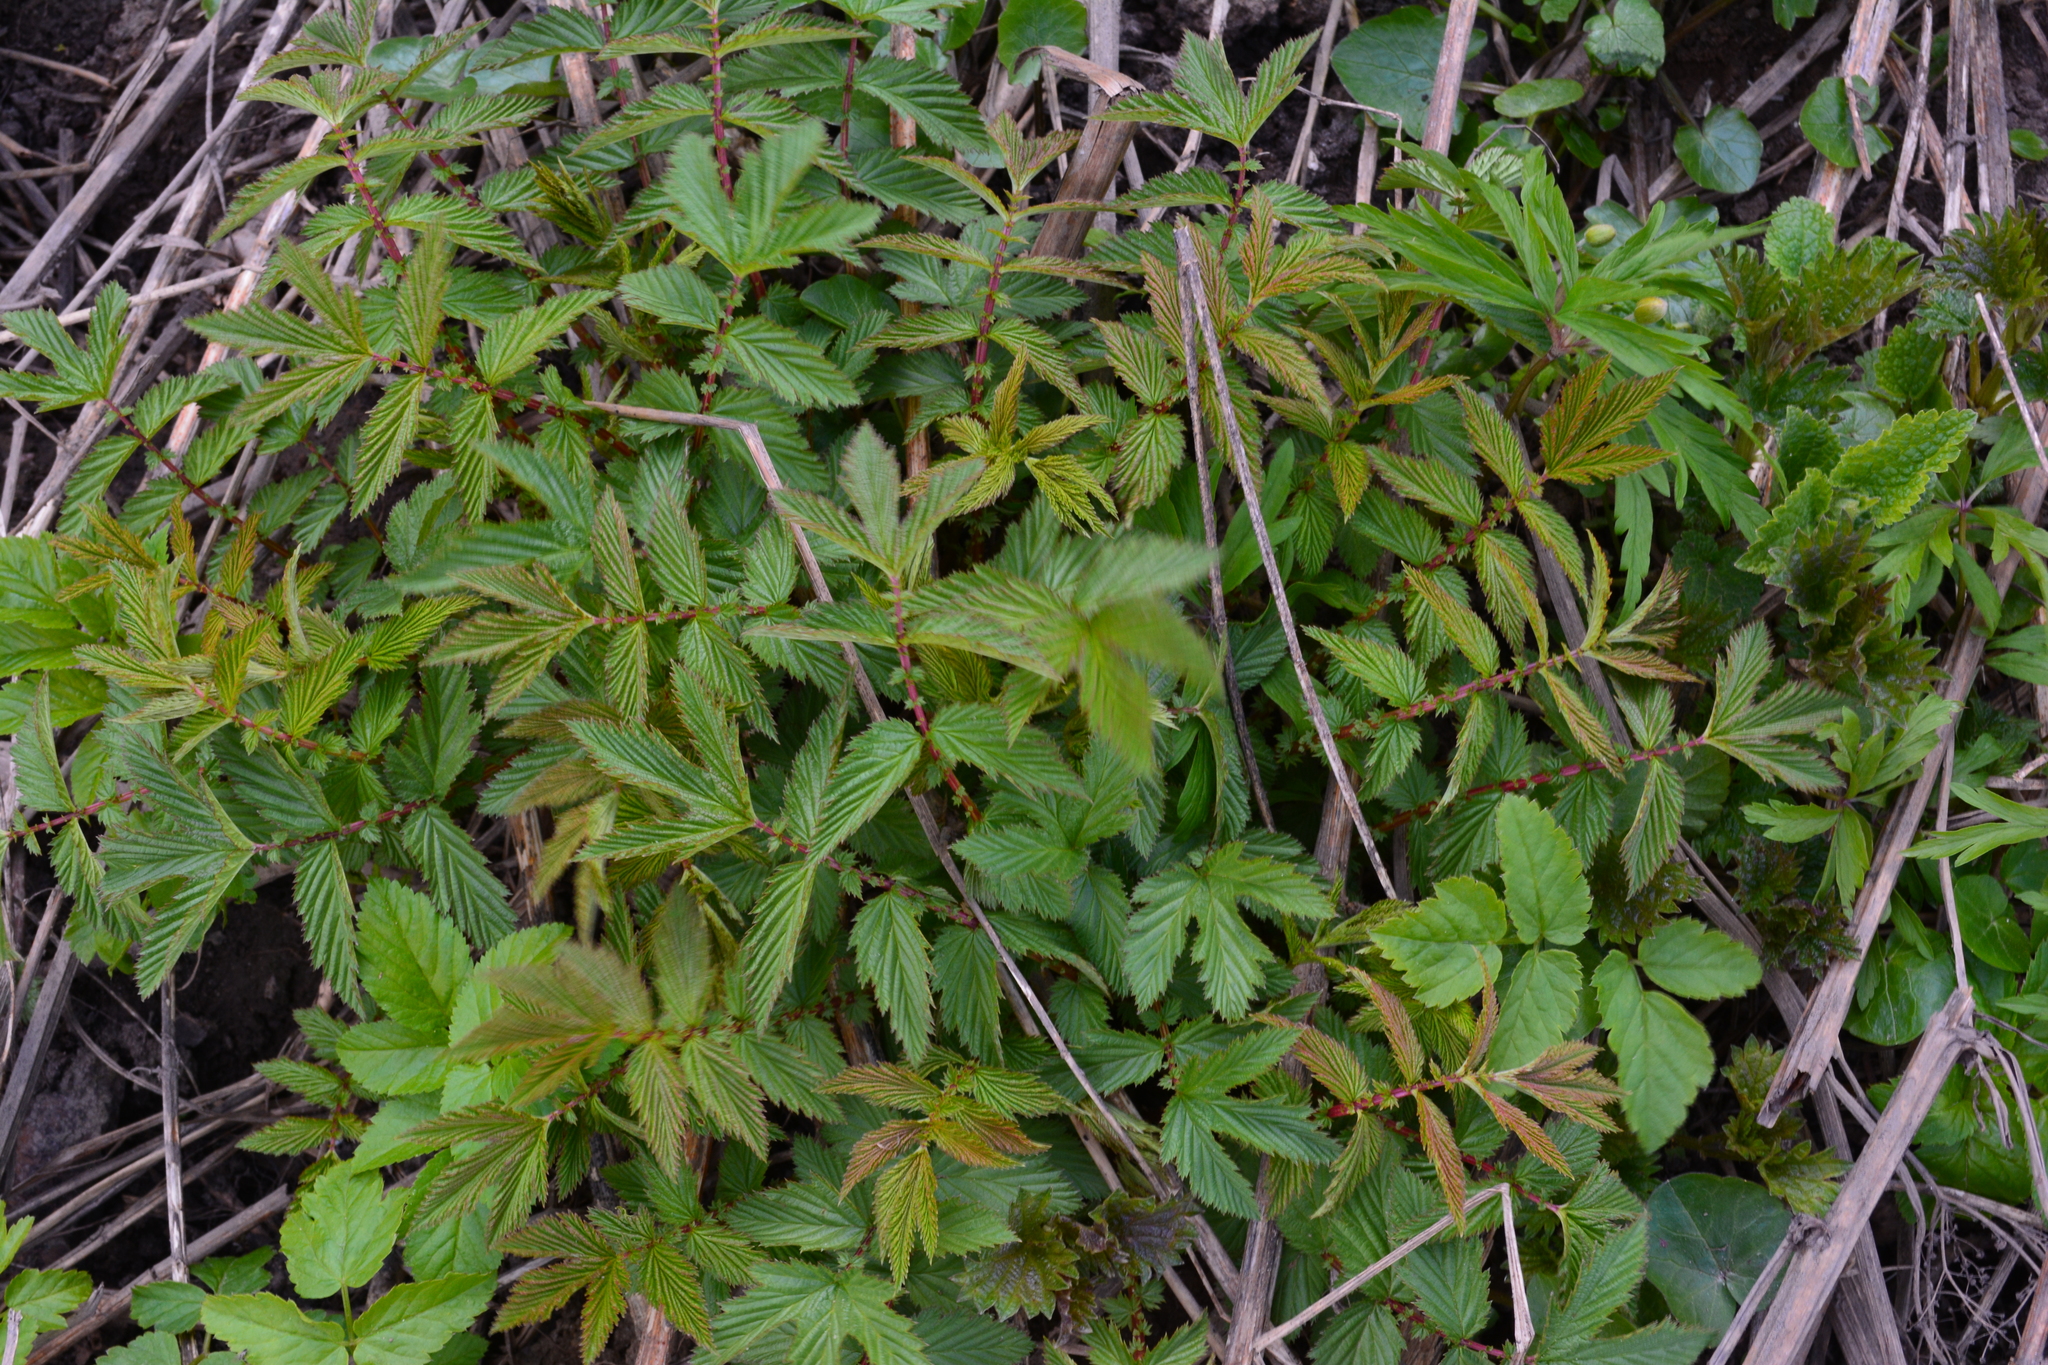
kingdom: Plantae
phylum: Tracheophyta
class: Magnoliopsida
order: Rosales
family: Rosaceae
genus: Filipendula
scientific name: Filipendula ulmaria
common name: Meadowsweet
